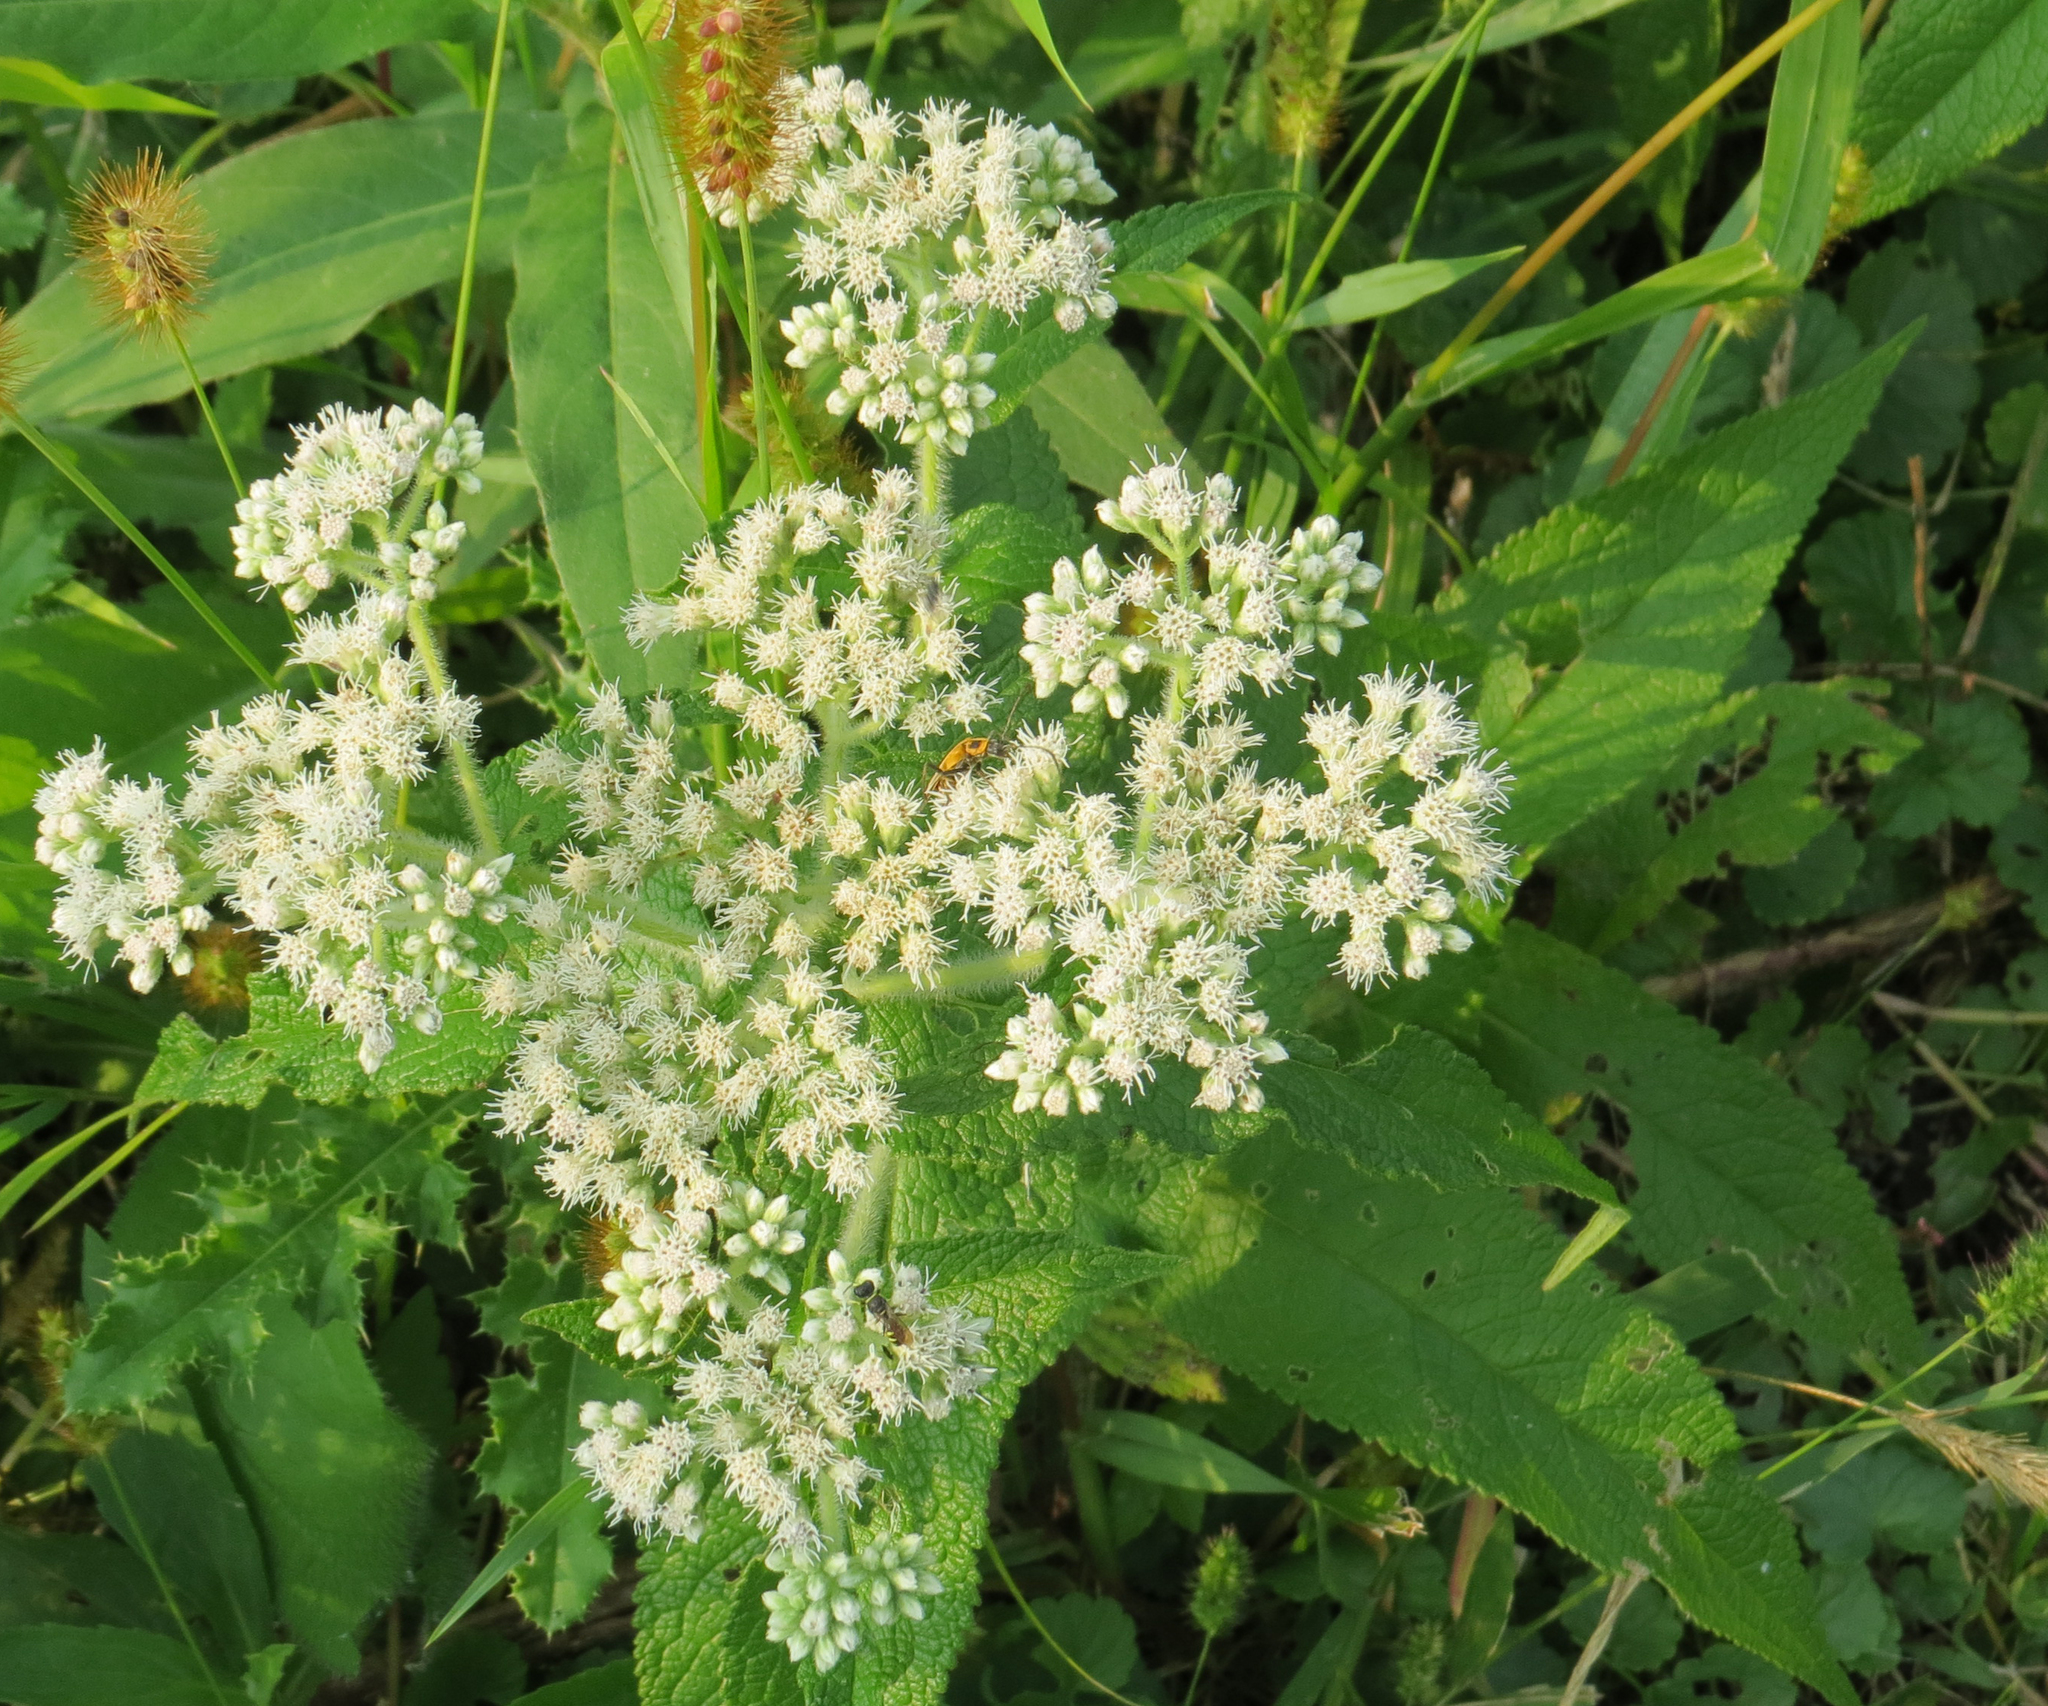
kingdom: Plantae
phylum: Tracheophyta
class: Magnoliopsida
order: Asterales
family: Asteraceae
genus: Eupatorium
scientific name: Eupatorium perfoliatum
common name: Boneset
